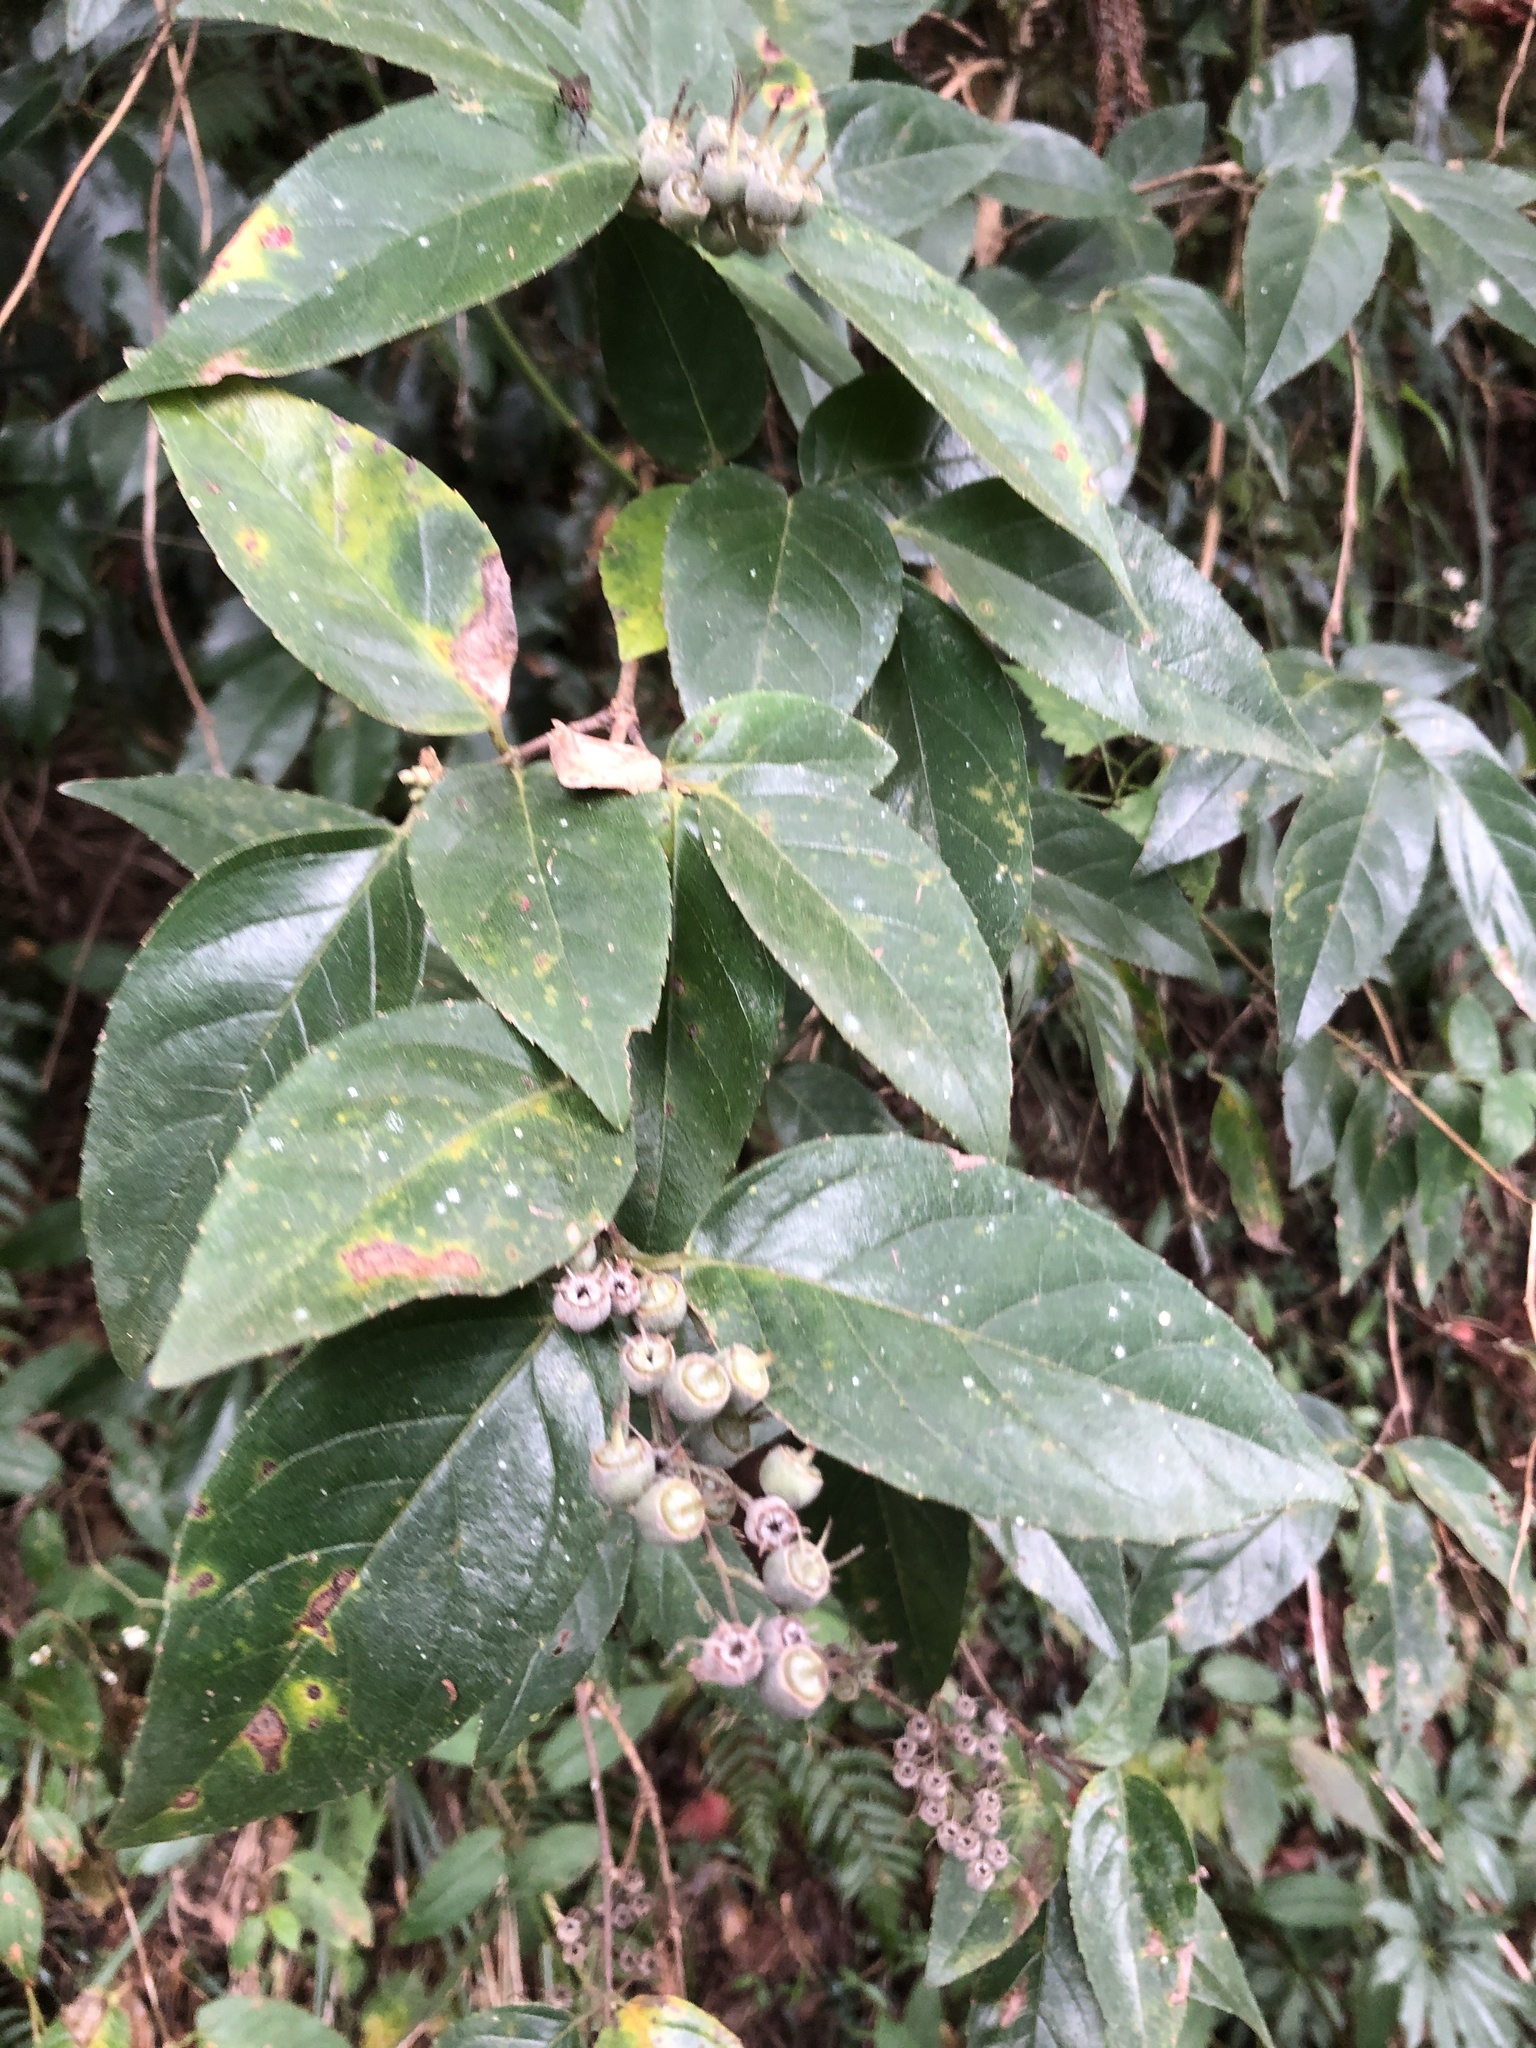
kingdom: Plantae
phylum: Tracheophyta
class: Magnoliopsida
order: Cornales
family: Hydrangeaceae
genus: Deutzia
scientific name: Deutzia pulchra
